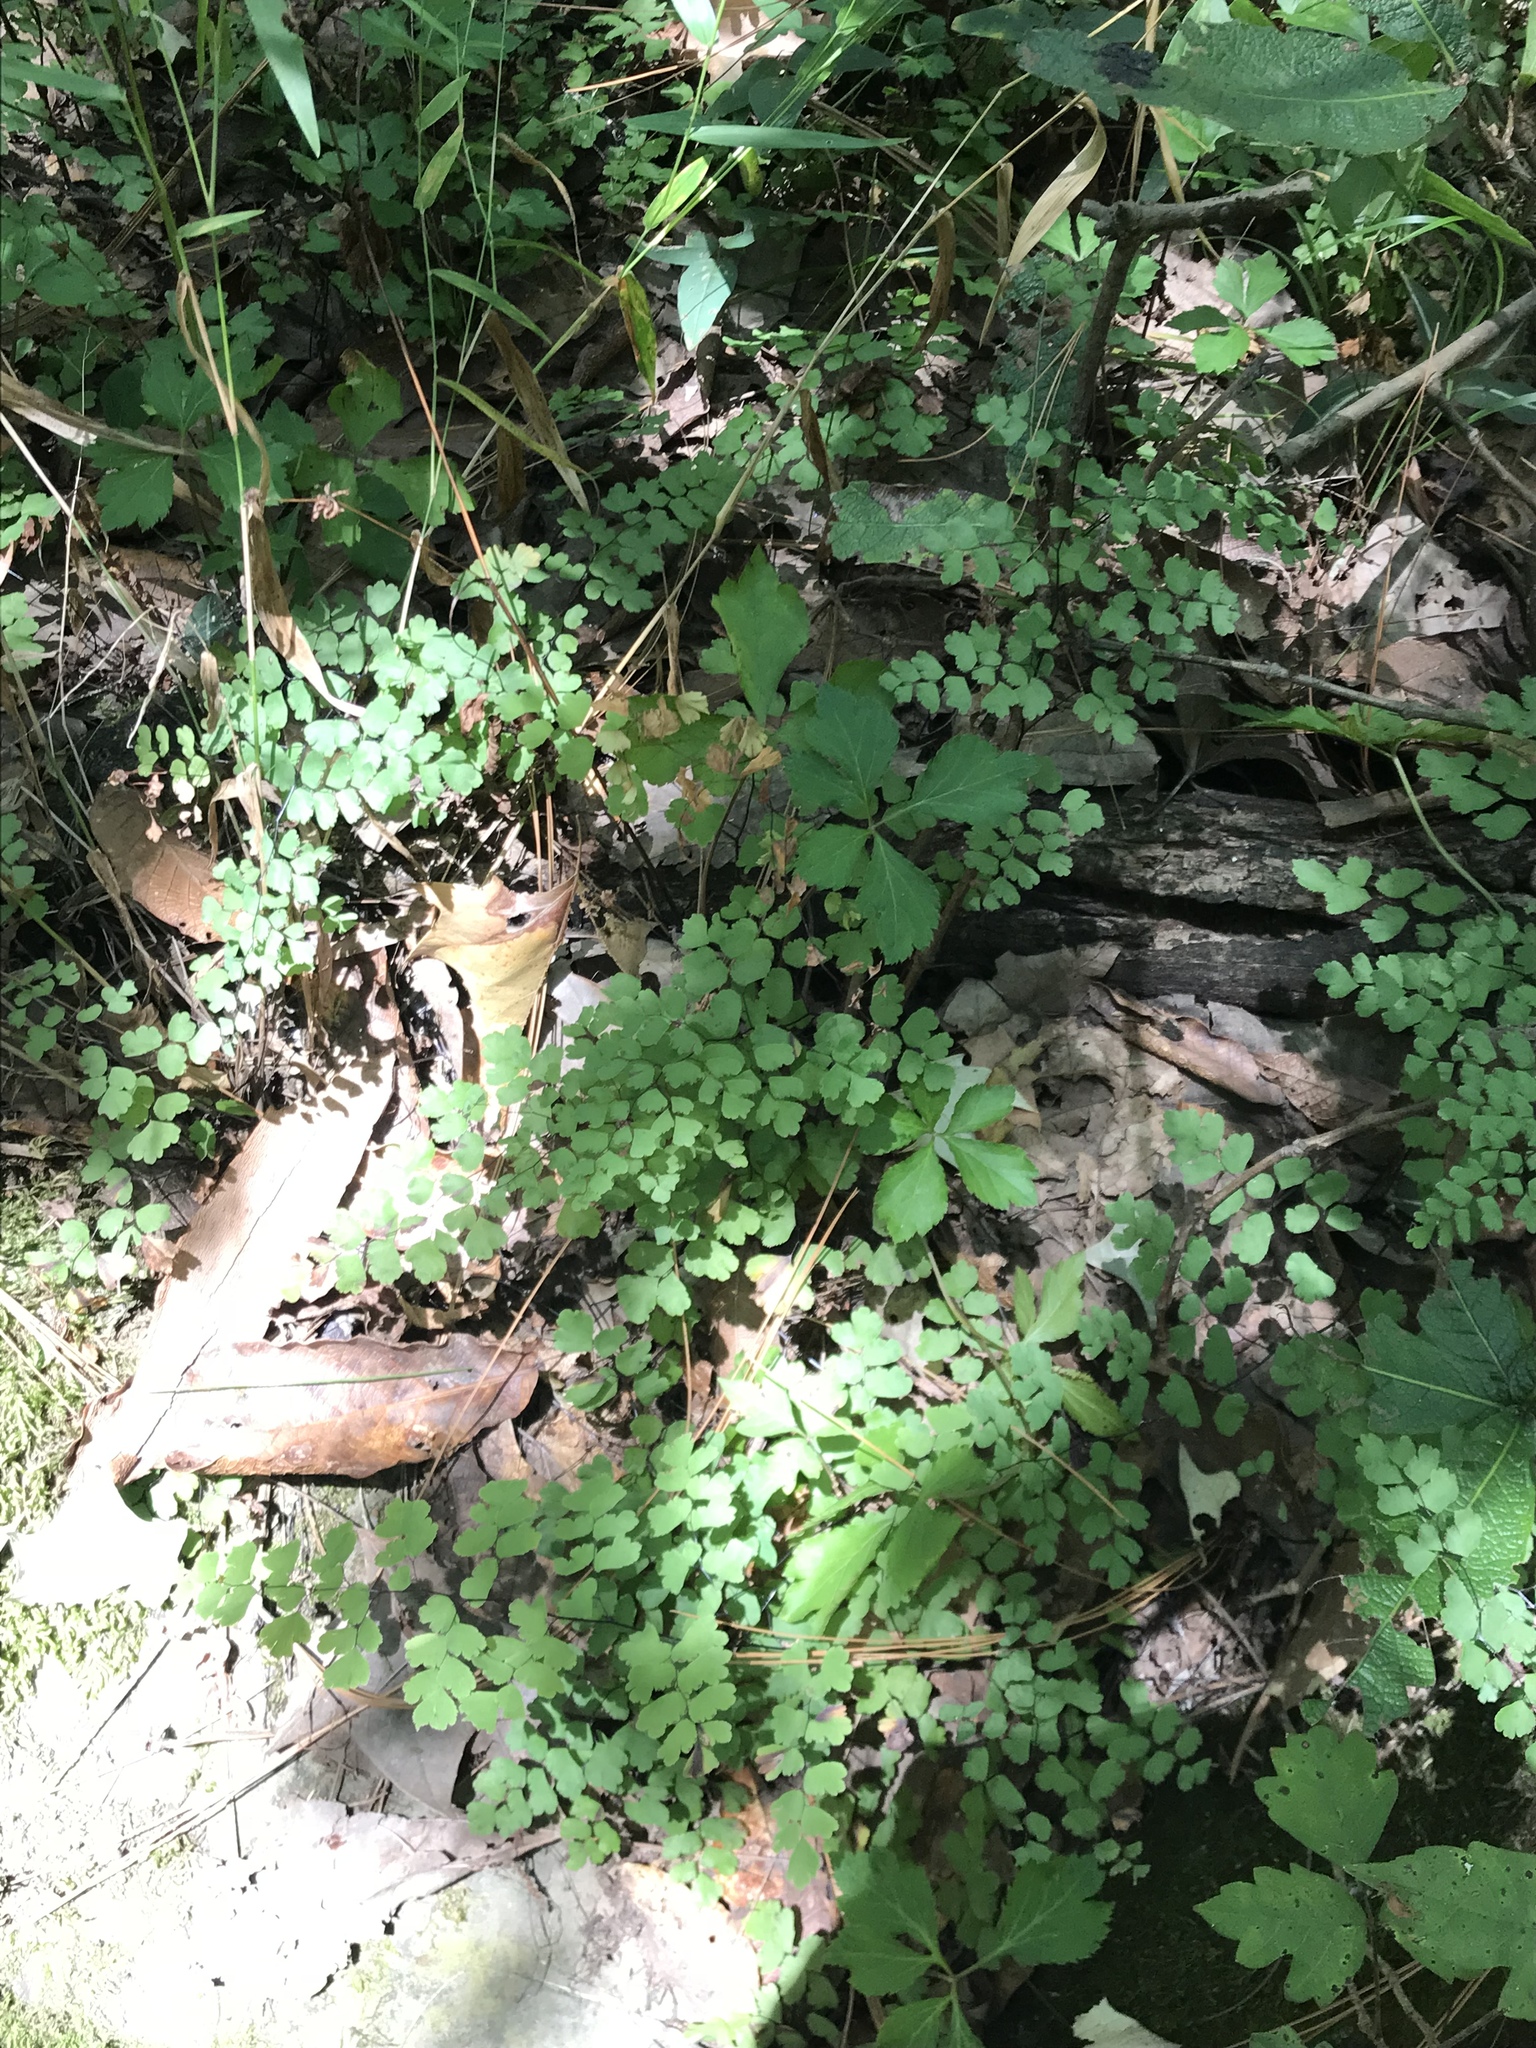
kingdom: Plantae
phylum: Tracheophyta
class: Polypodiopsida
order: Polypodiales
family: Pteridaceae
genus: Adiantum
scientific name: Adiantum capillus-veneris
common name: Maidenhair fern
